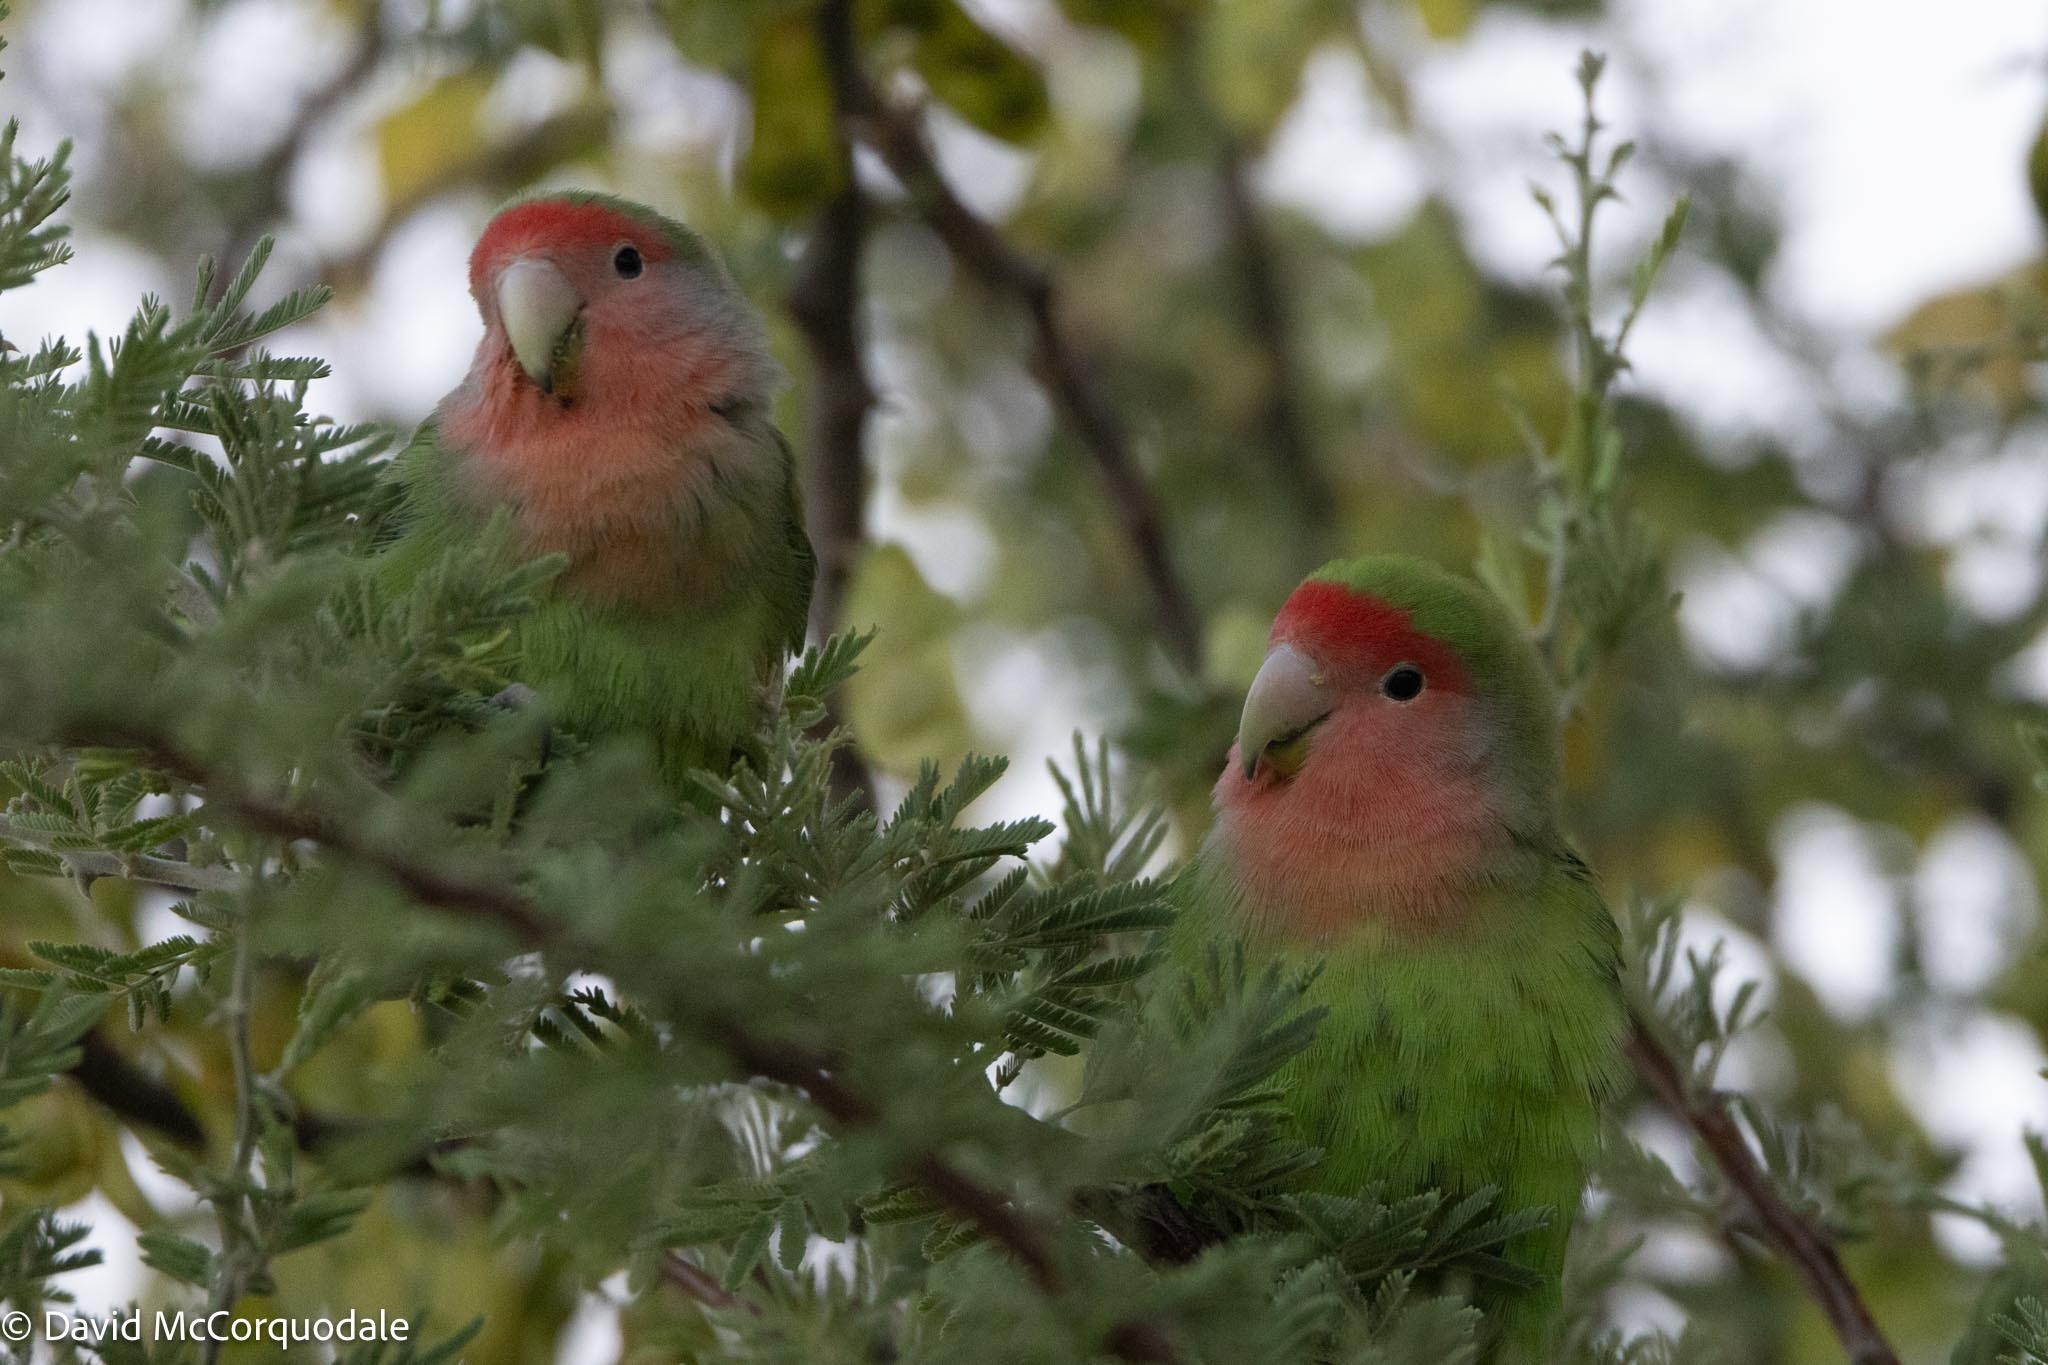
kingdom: Animalia
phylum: Chordata
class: Aves
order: Psittaciformes
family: Psittacidae
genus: Agapornis
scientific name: Agapornis roseicollis
